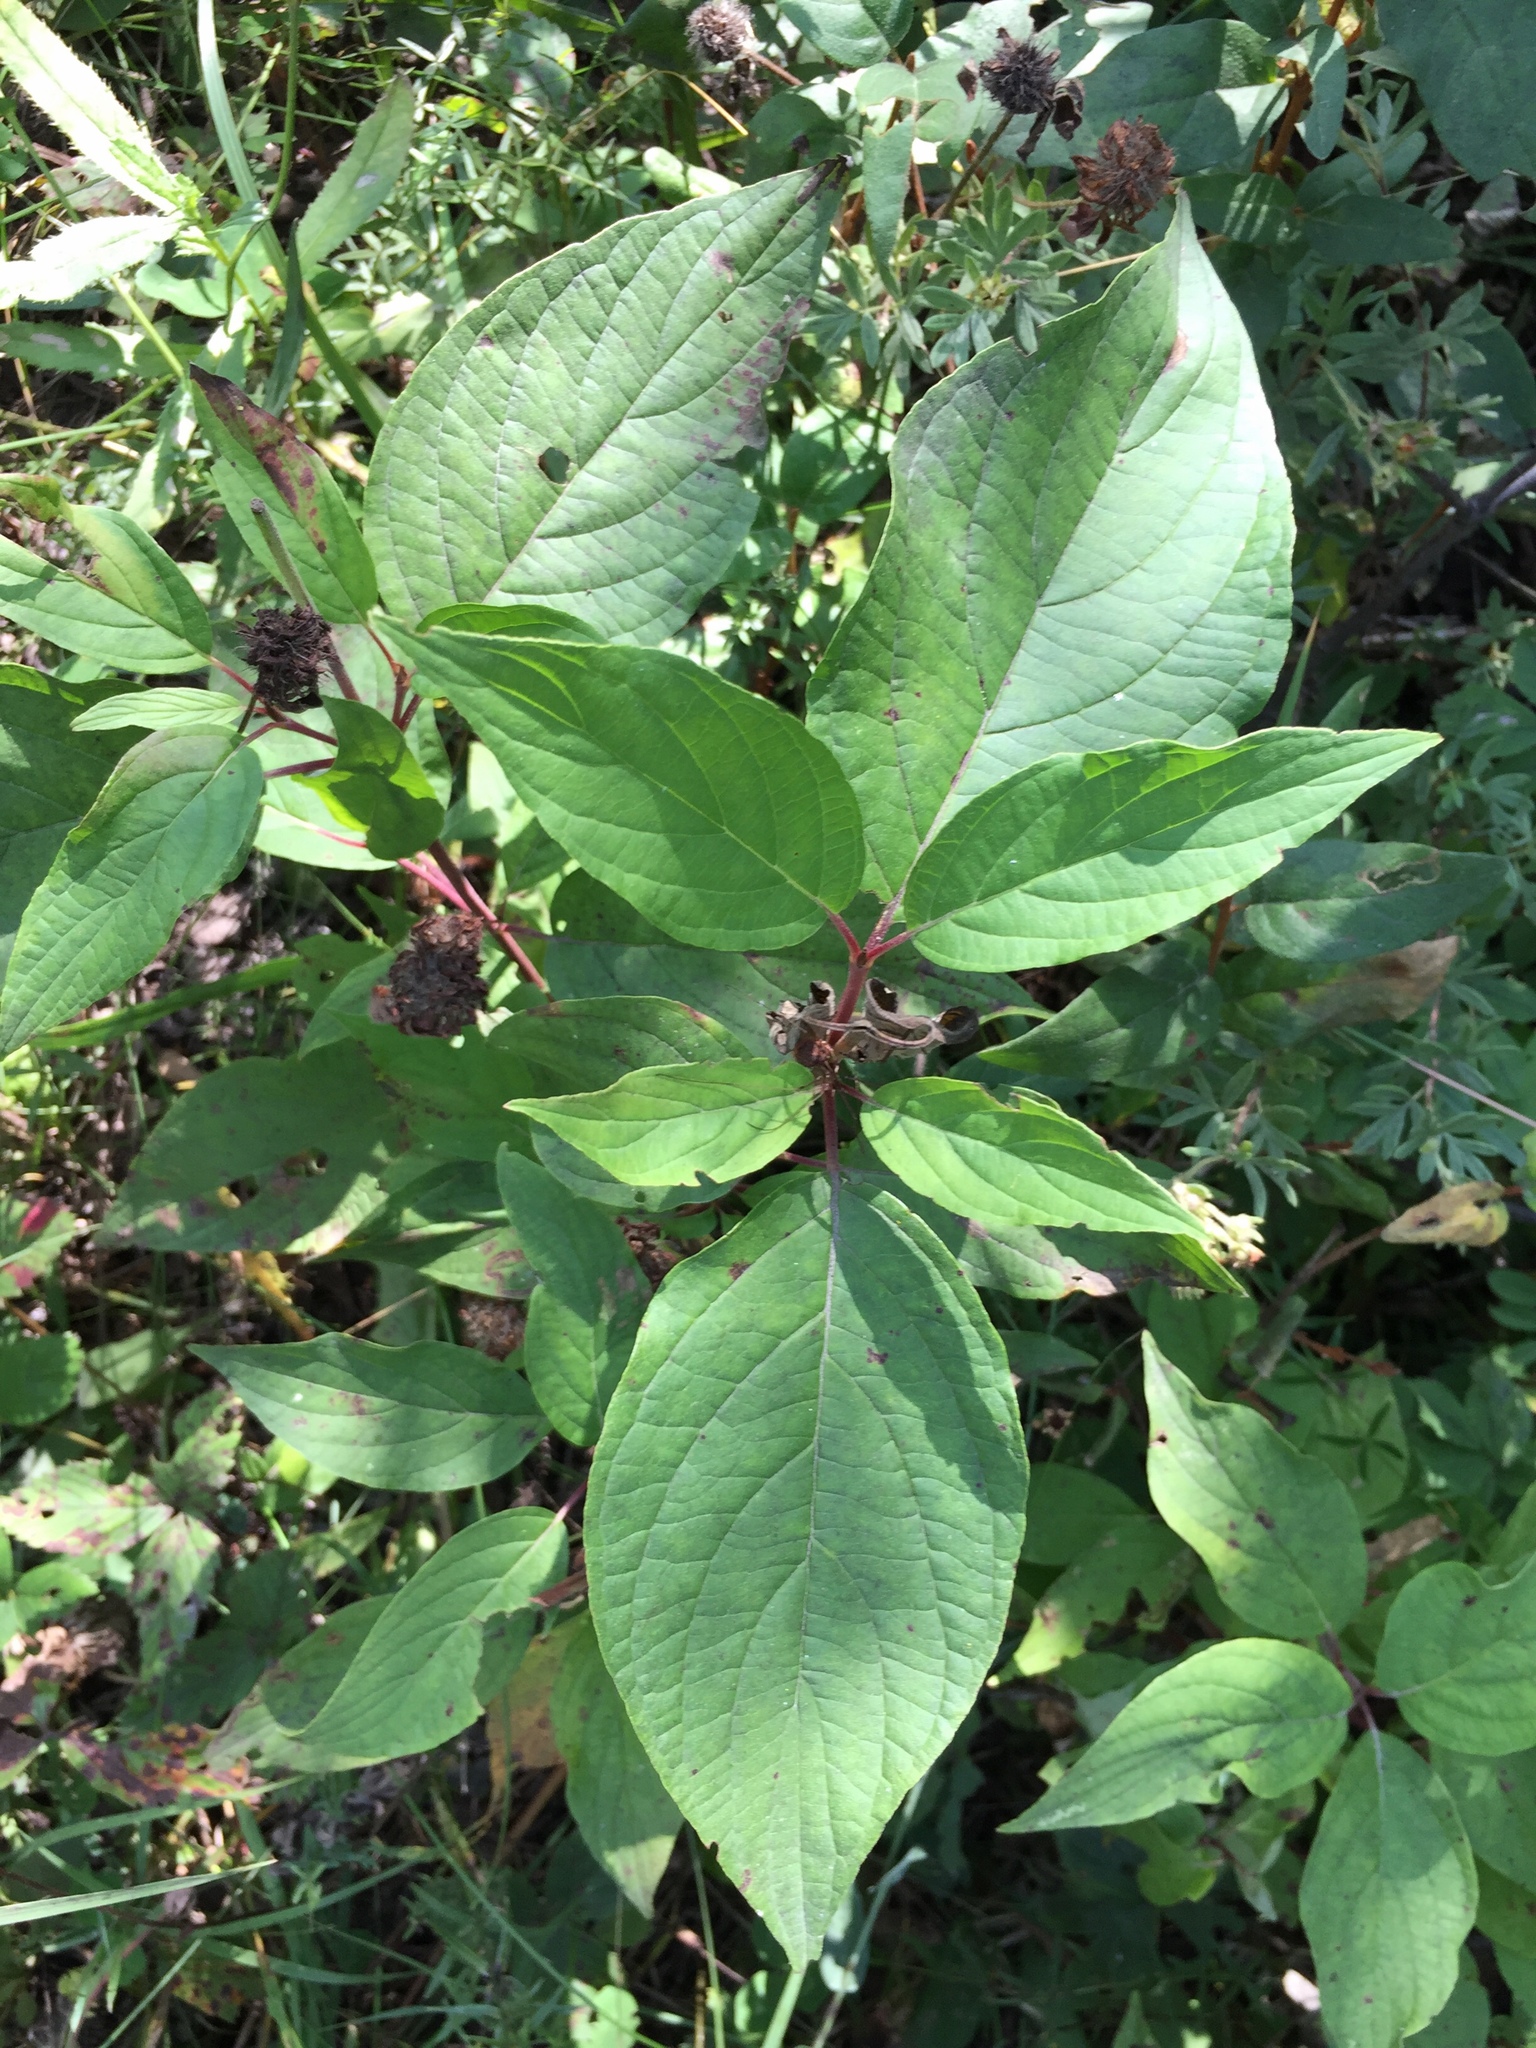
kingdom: Plantae
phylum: Tracheophyta
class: Magnoliopsida
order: Cornales
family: Cornaceae
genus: Cornus
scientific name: Cornus sericea
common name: Red-osier dogwood
